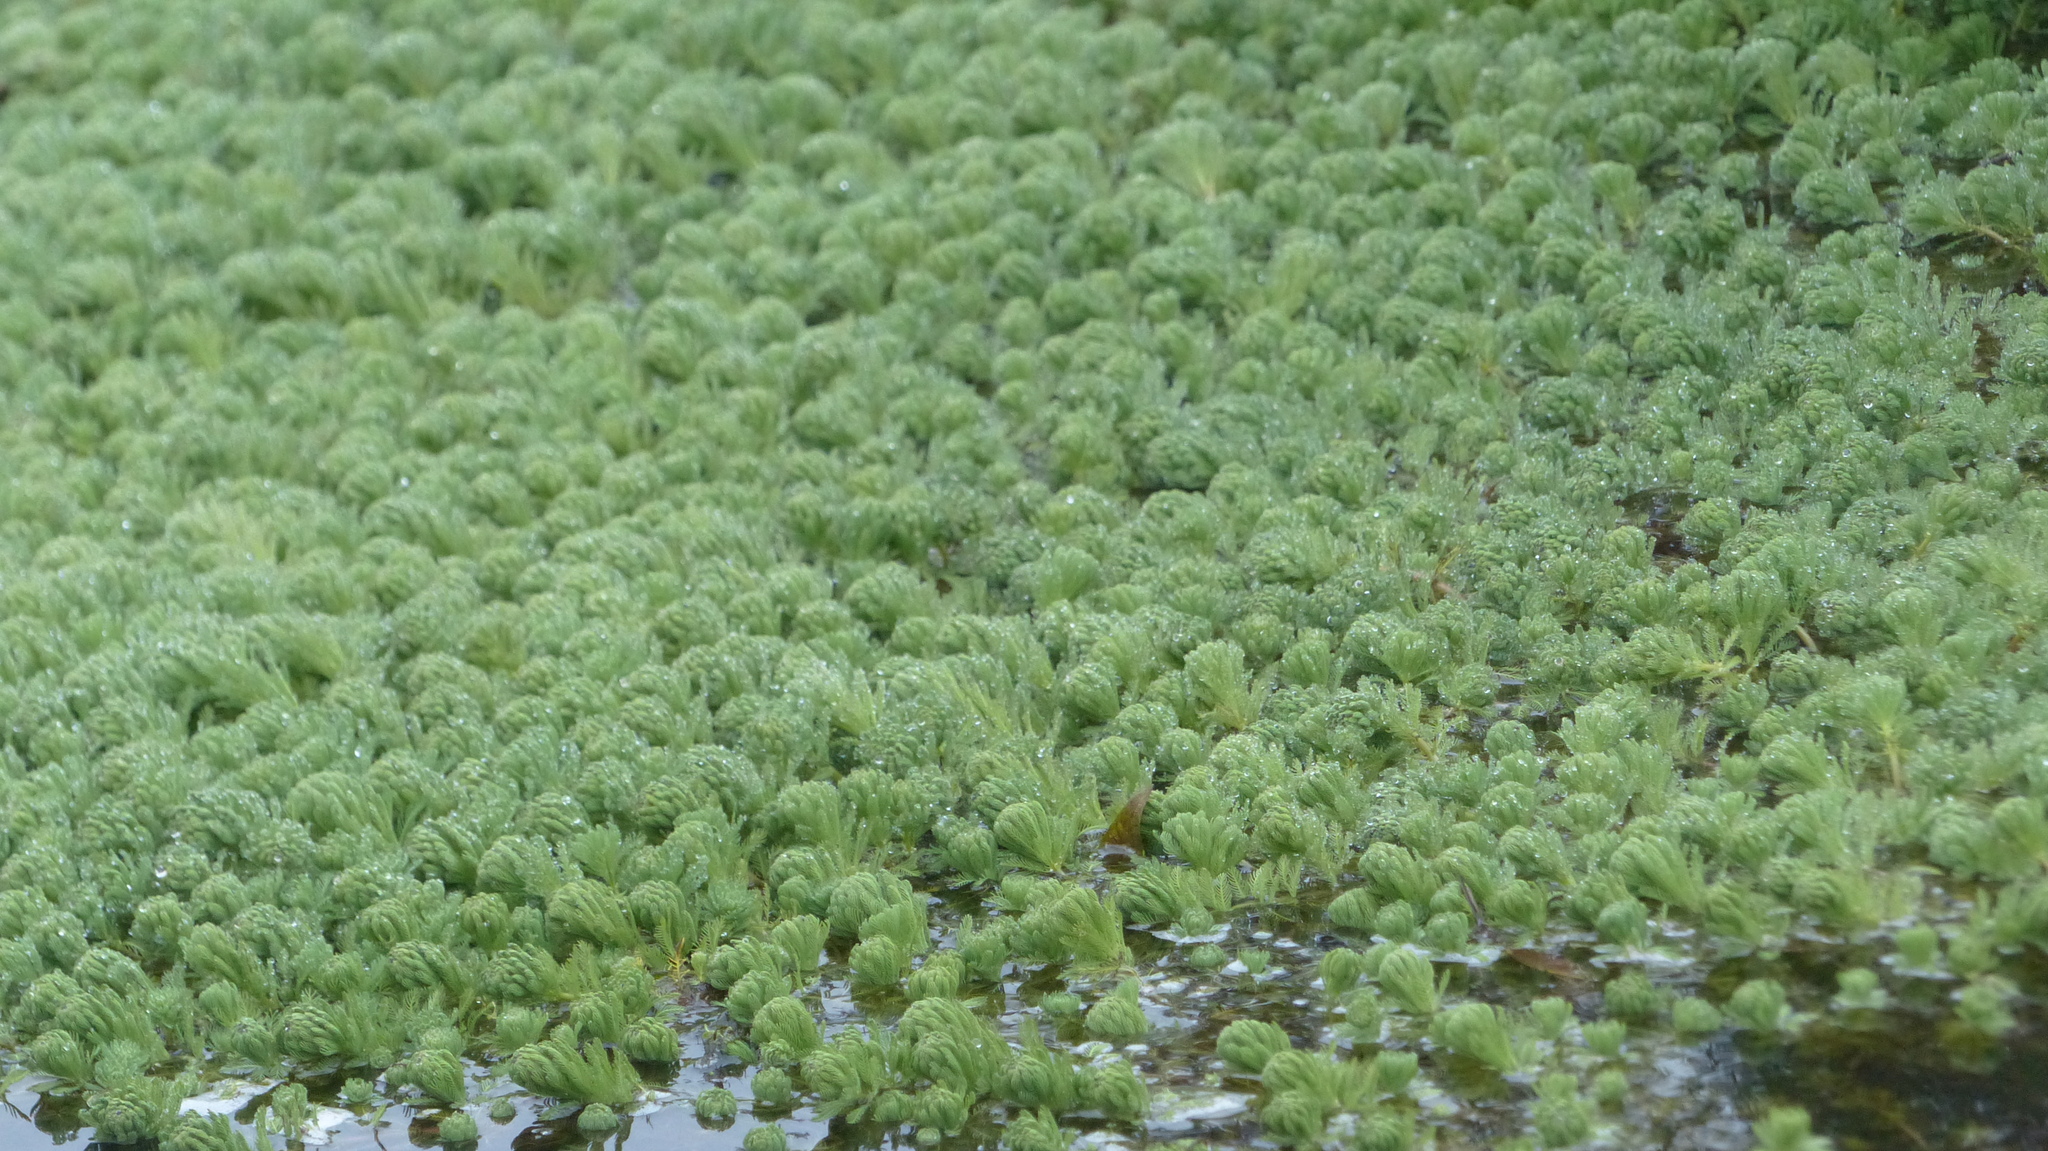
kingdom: Plantae
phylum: Tracheophyta
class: Magnoliopsida
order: Saxifragales
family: Haloragaceae
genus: Myriophyllum
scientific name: Myriophyllum aquaticum
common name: Parrot's feather
